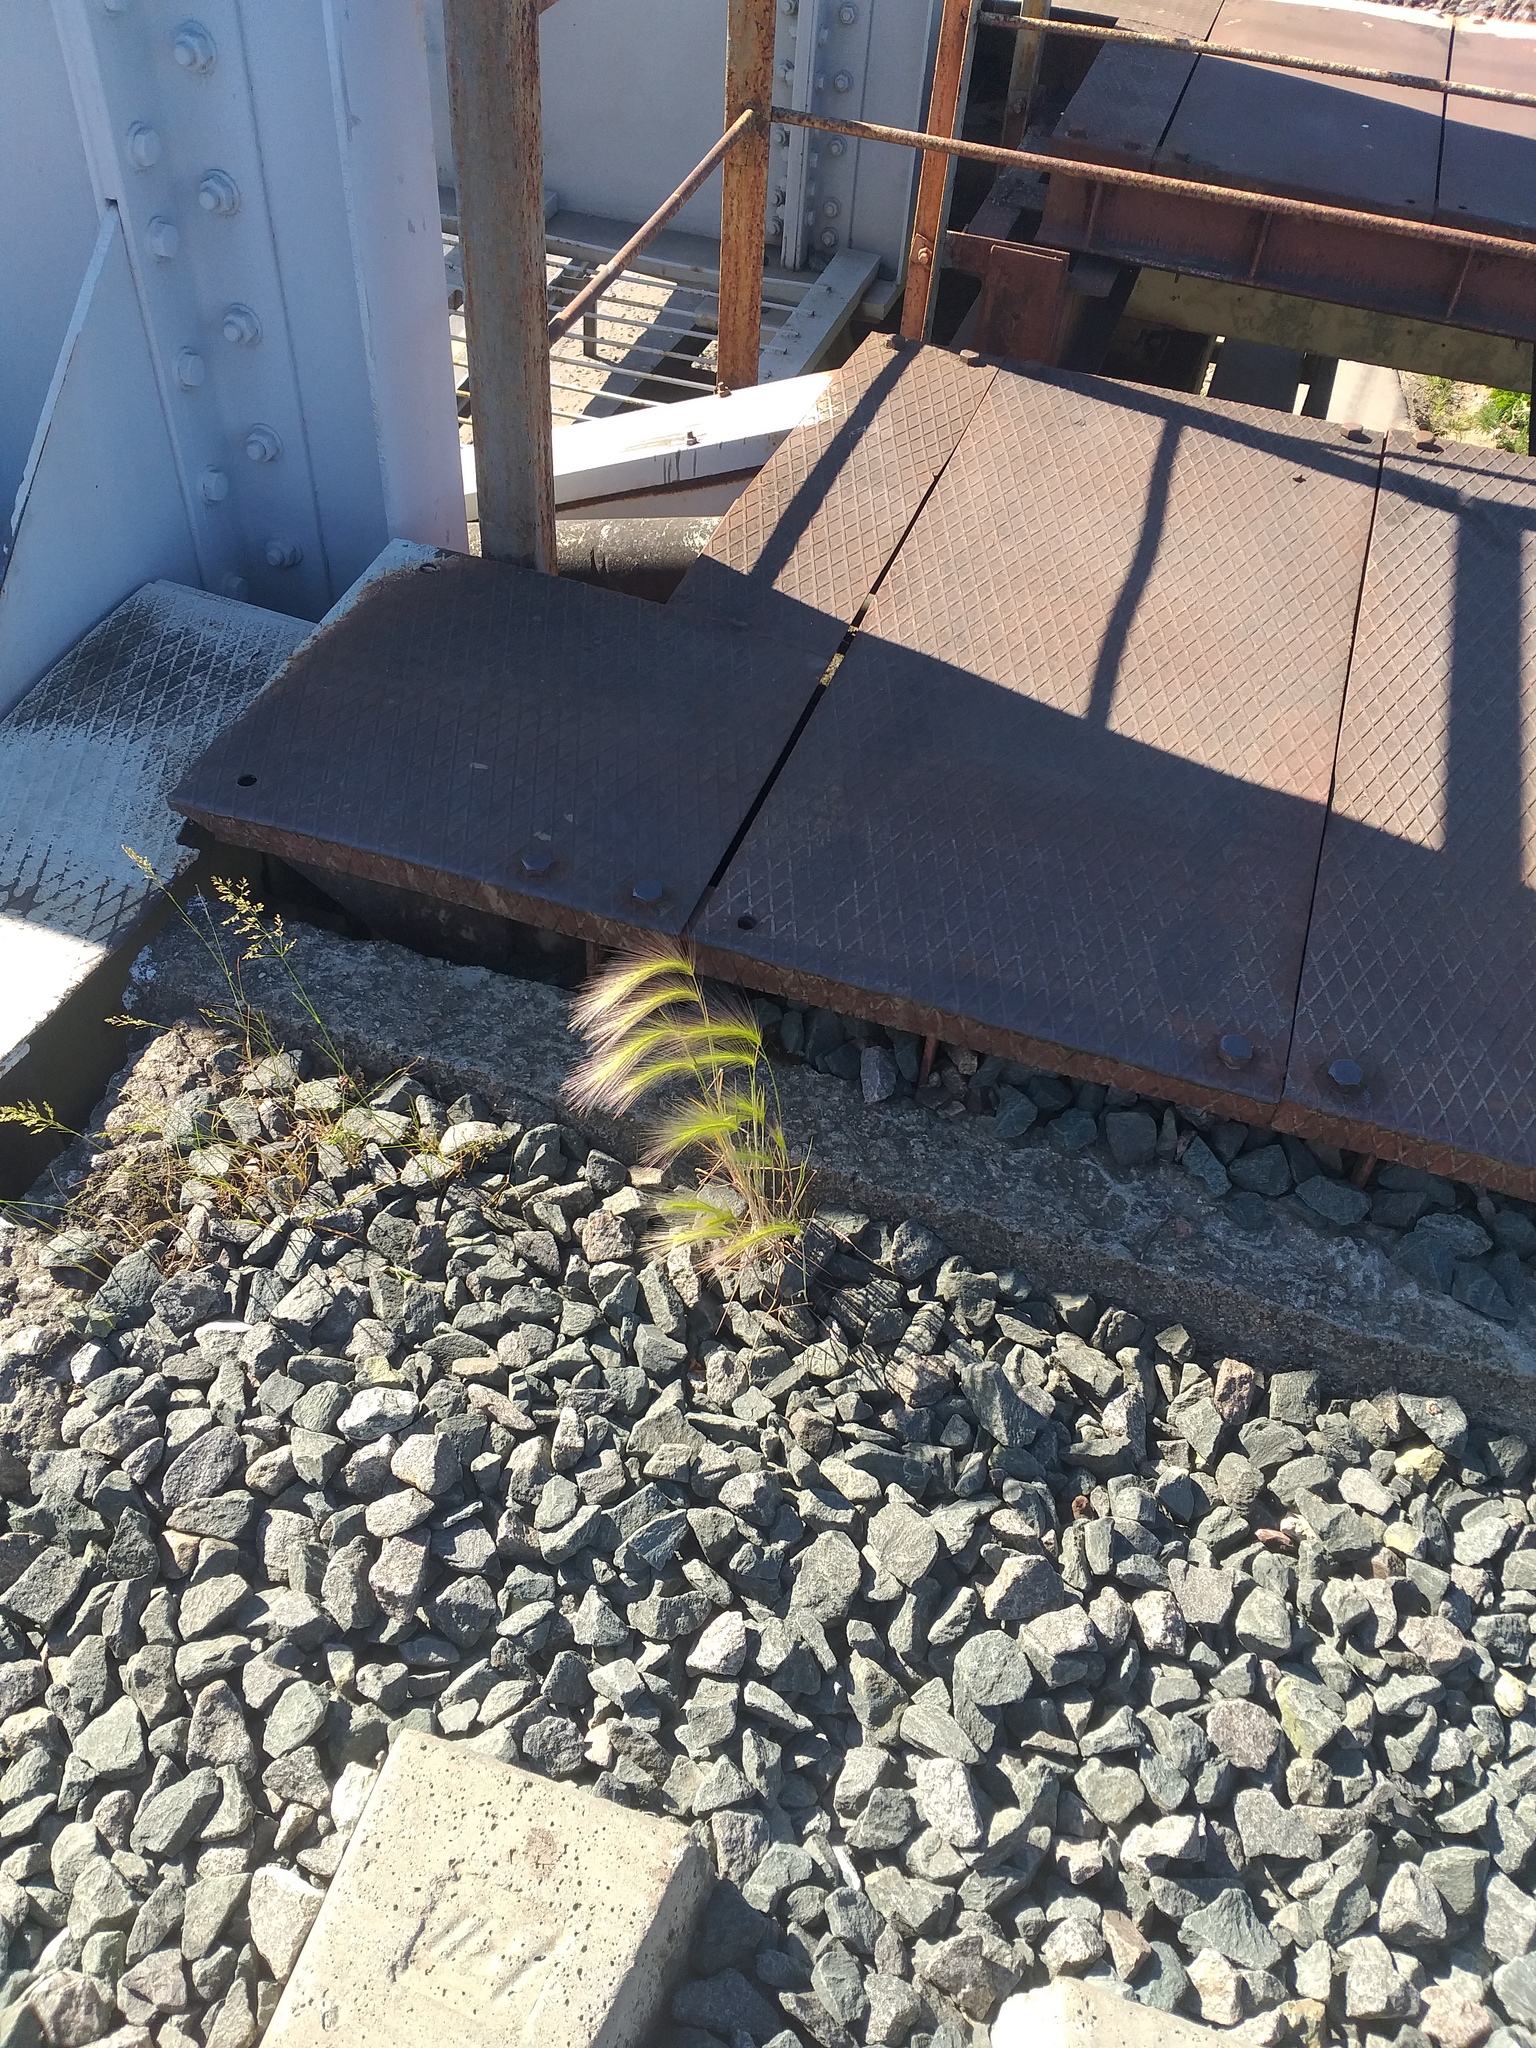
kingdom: Plantae
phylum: Tracheophyta
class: Liliopsida
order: Poales
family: Poaceae
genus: Hordeum
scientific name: Hordeum jubatum
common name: Foxtail barley
